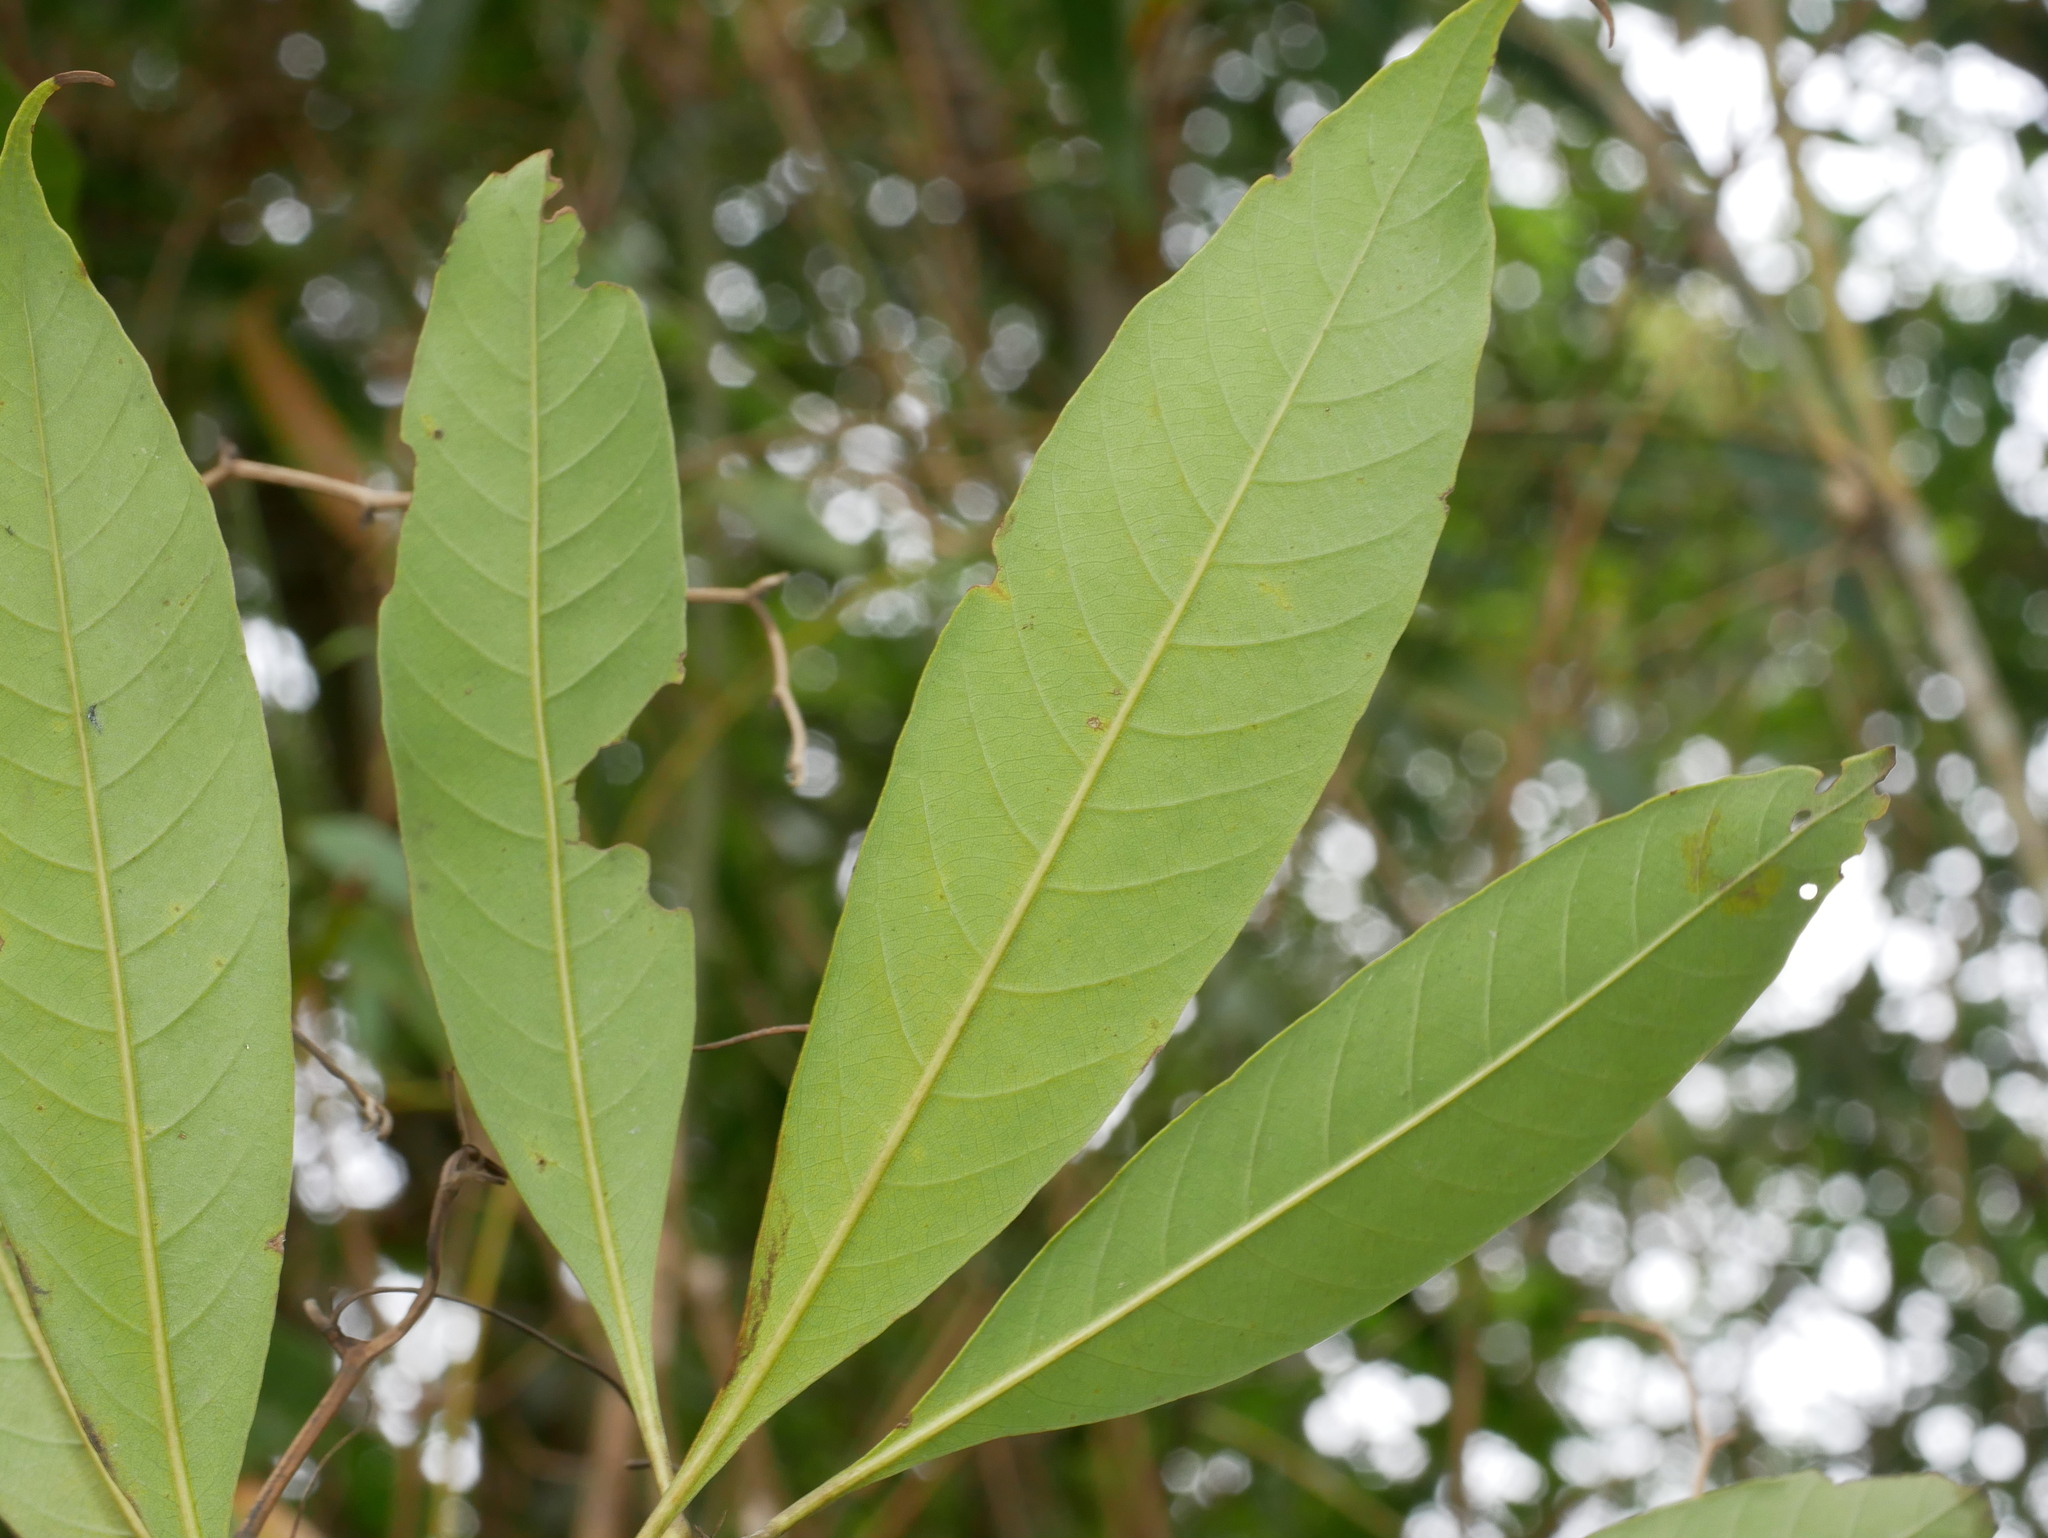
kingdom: Plantae
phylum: Tracheophyta
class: Magnoliopsida
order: Fagales
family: Fagaceae
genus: Lithocarpus
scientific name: Lithocarpus brevicaudatus
